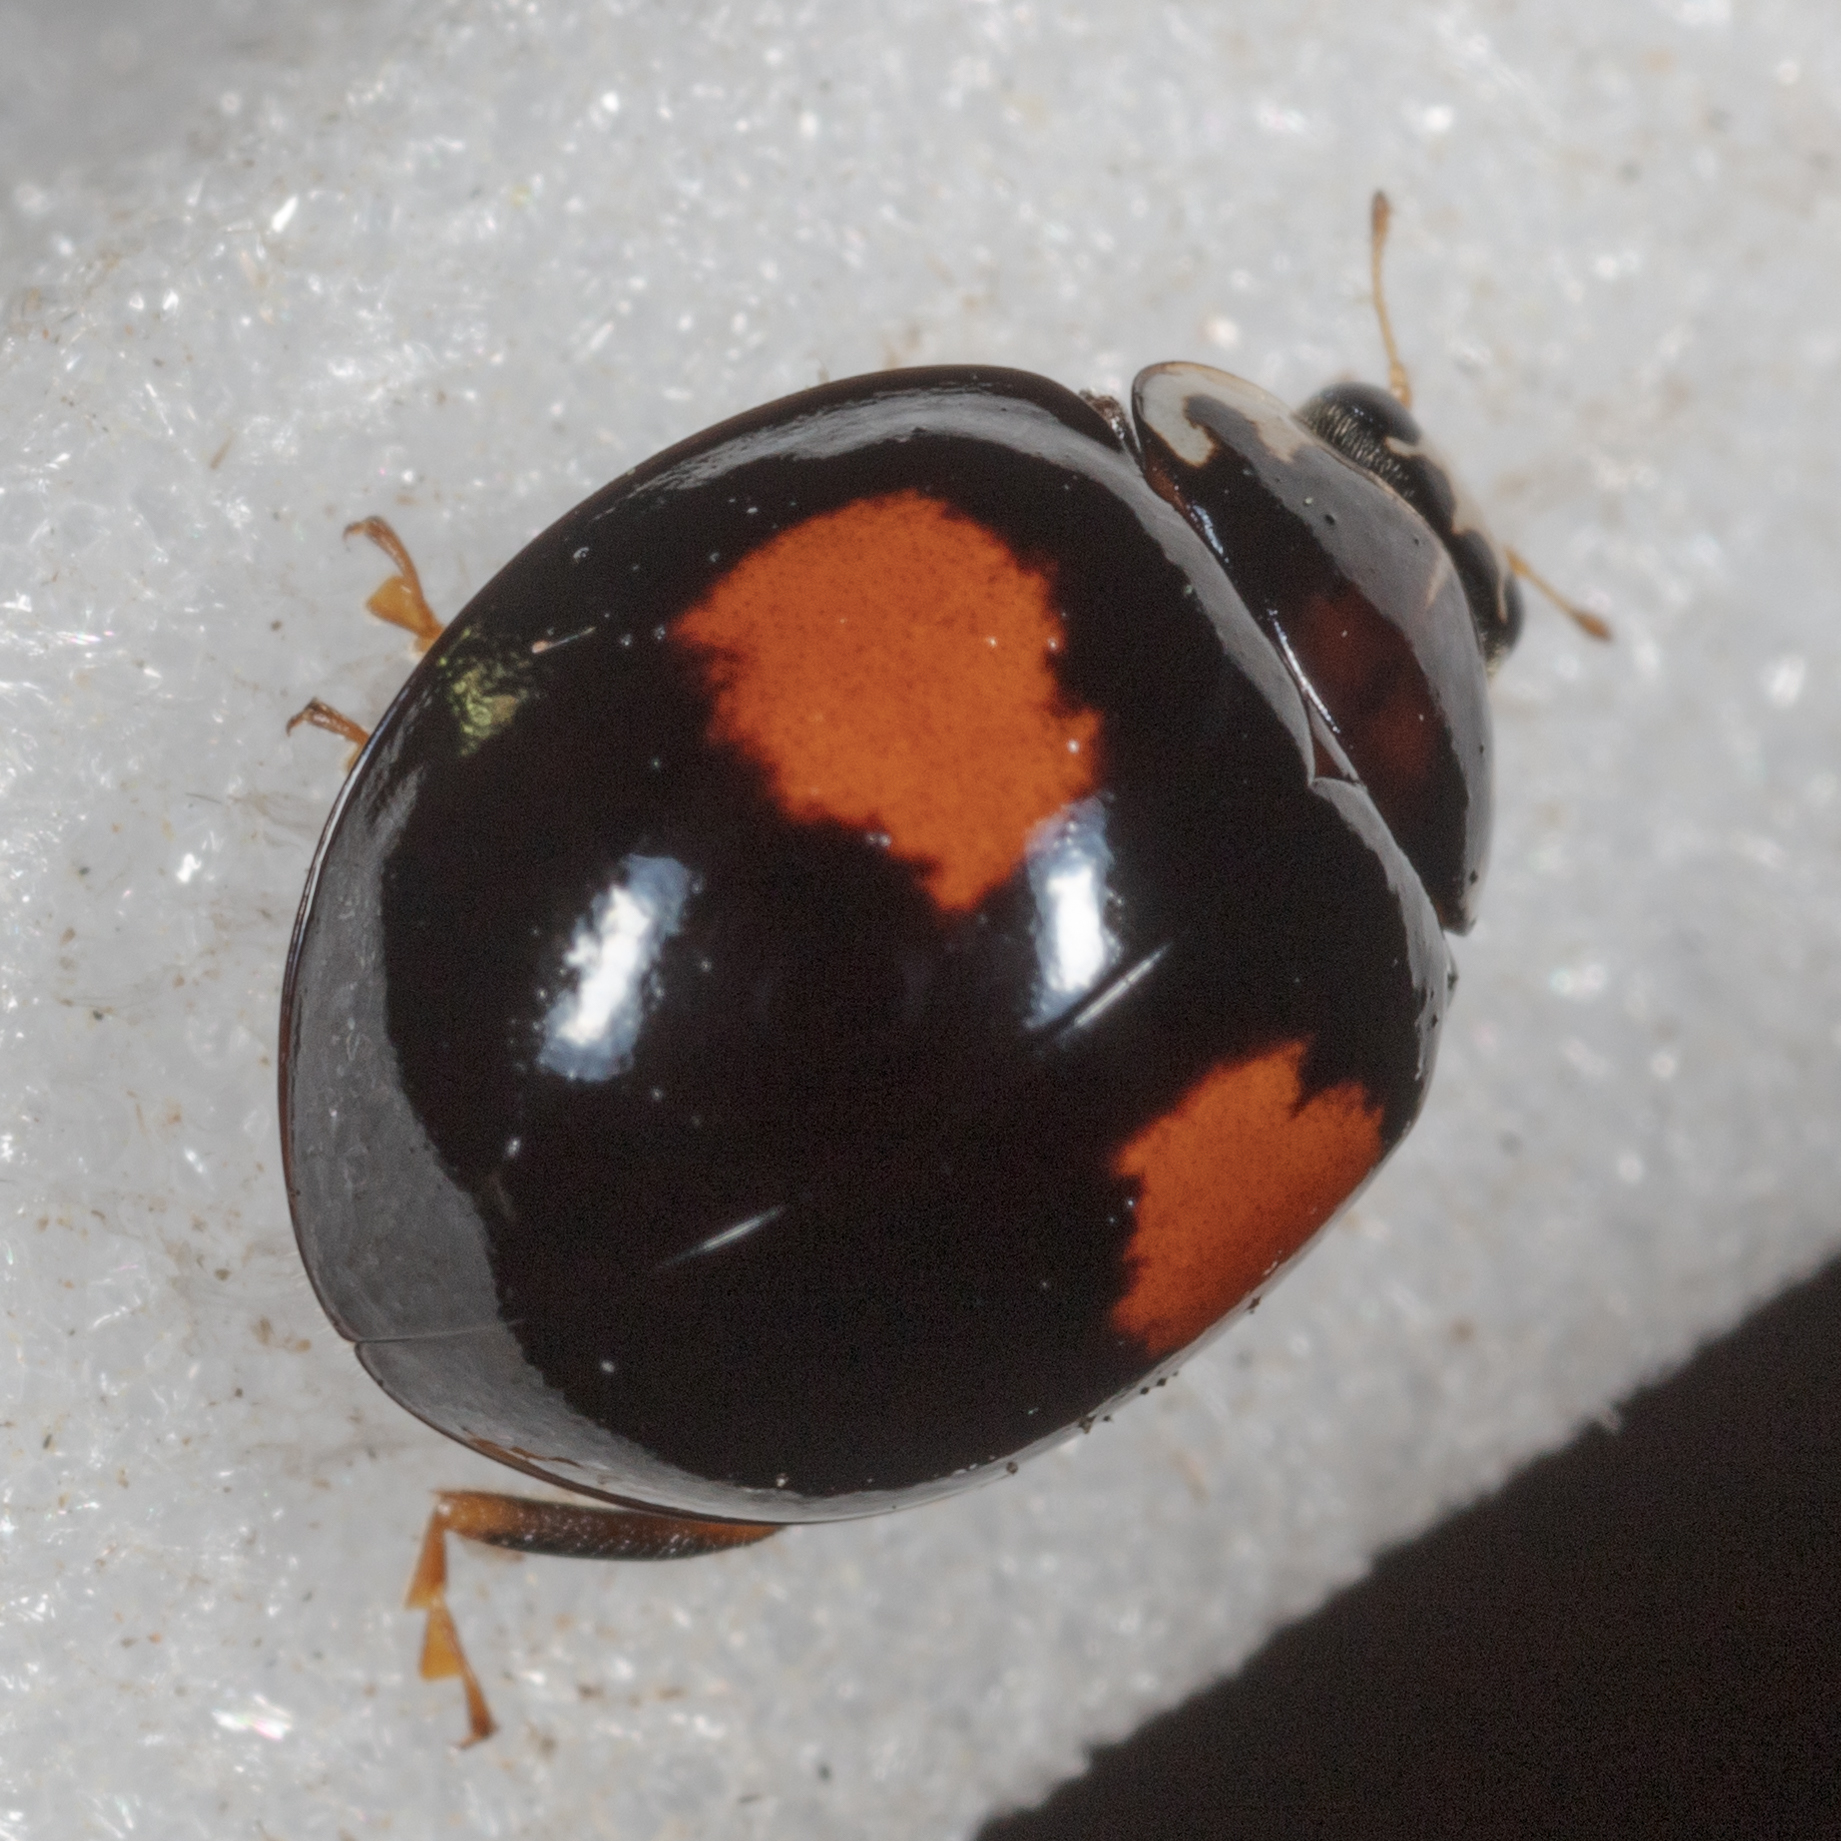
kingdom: Animalia
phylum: Arthropoda
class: Insecta
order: Coleoptera
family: Coccinellidae
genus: Olla
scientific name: Olla v-nigrum
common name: Ashy gray lady beetle
